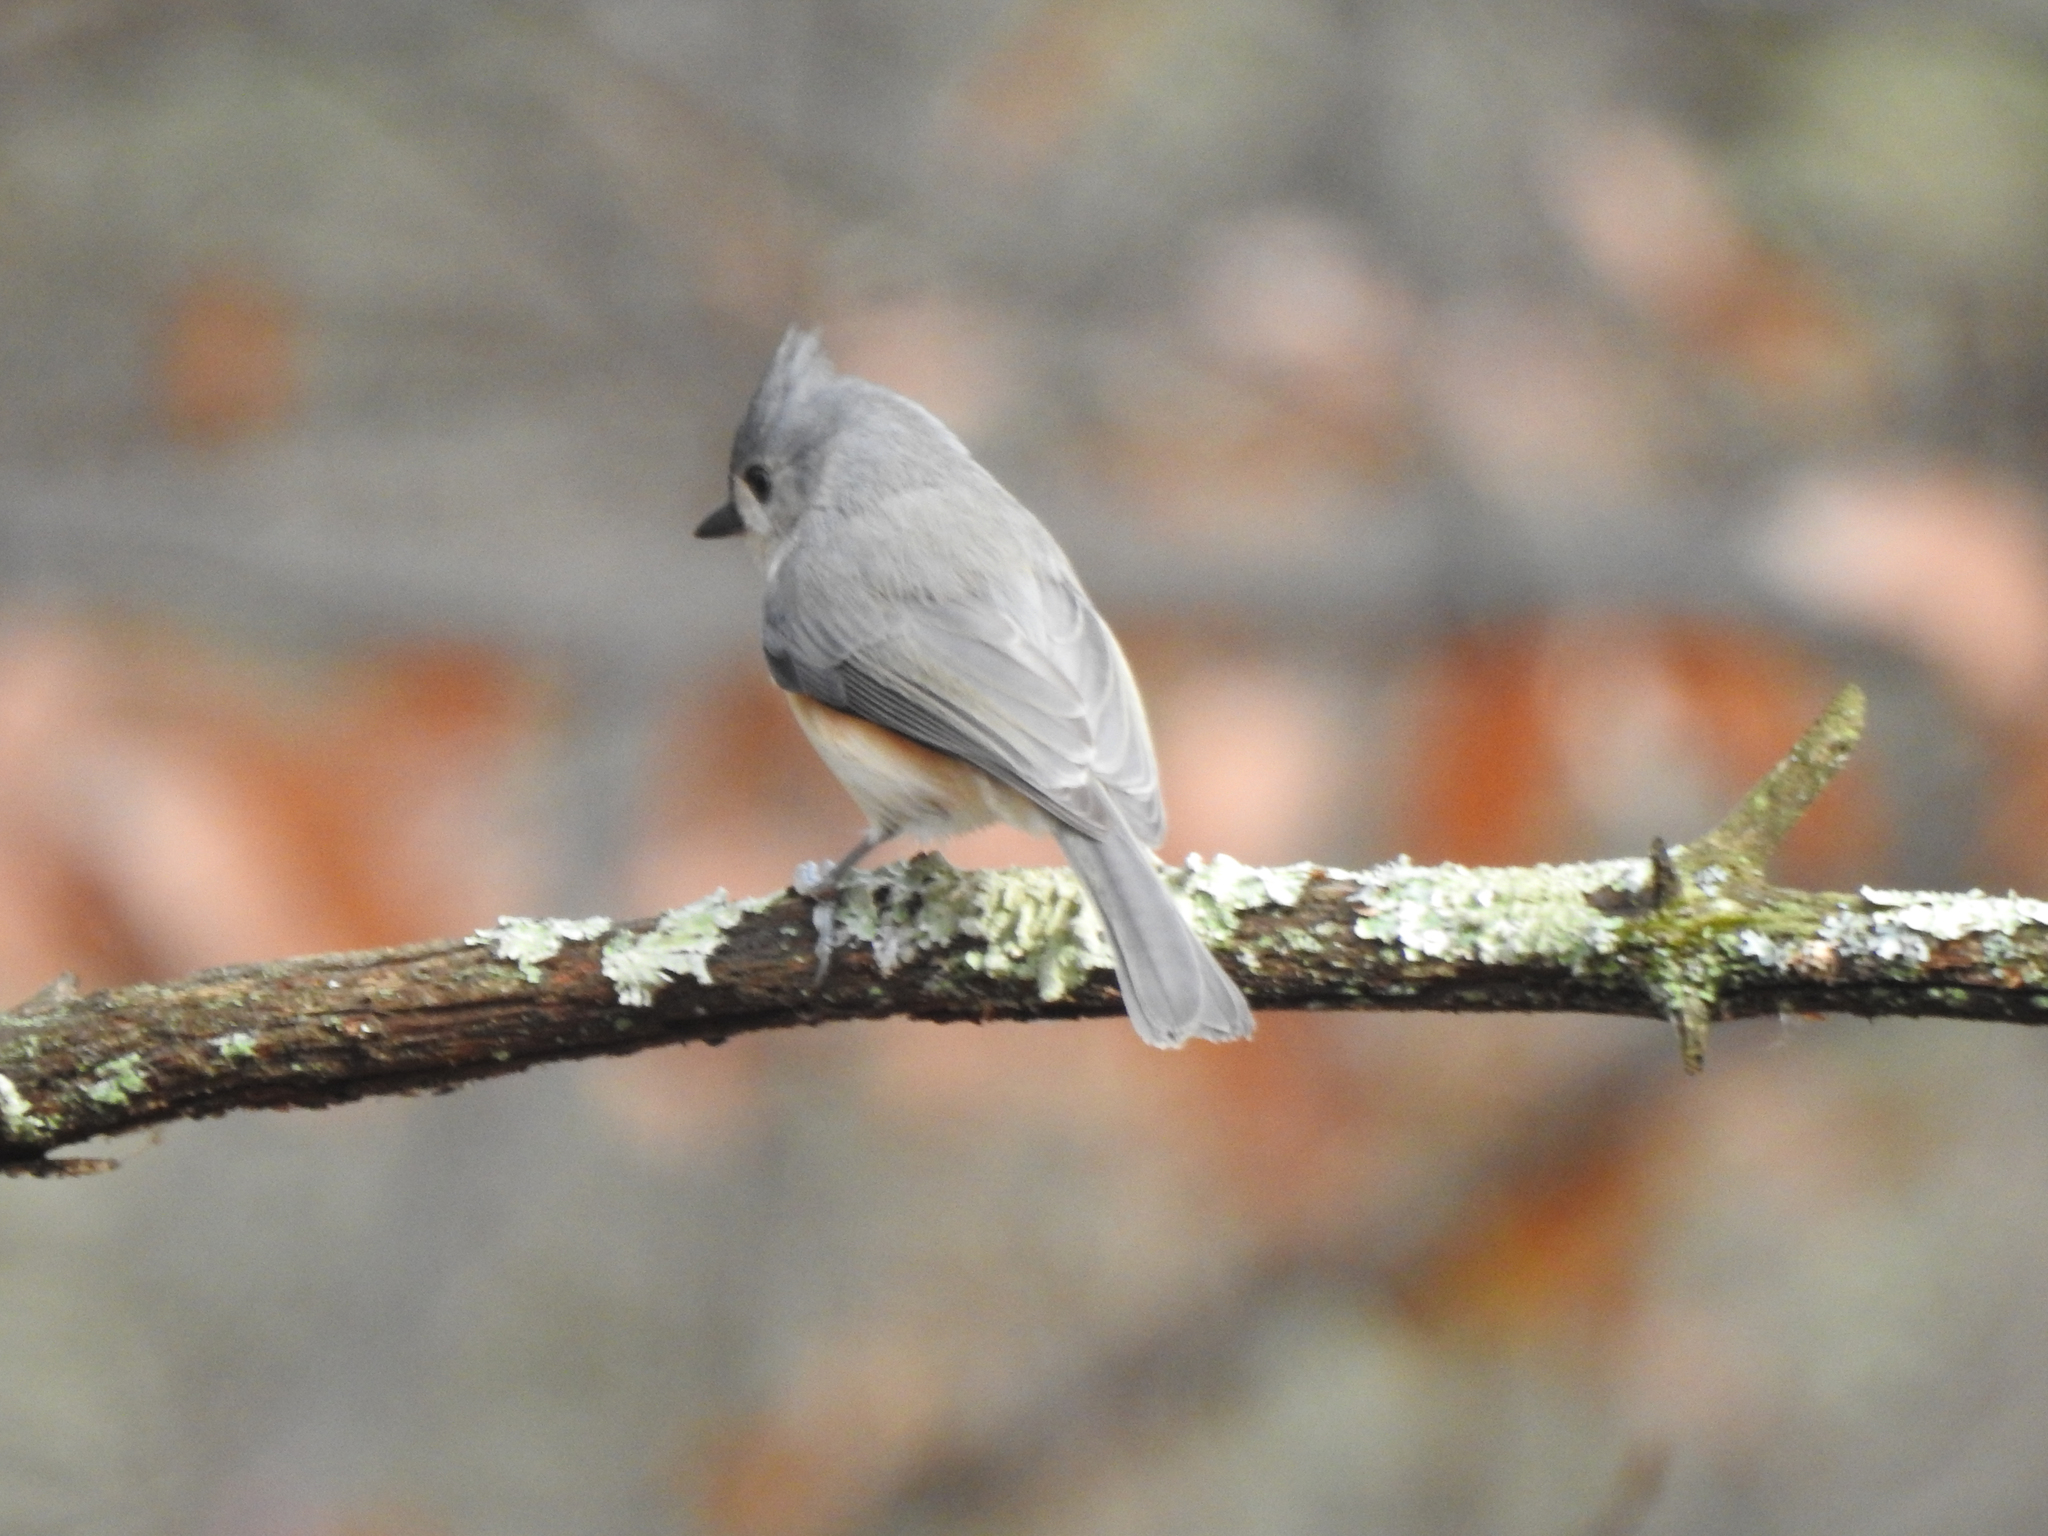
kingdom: Animalia
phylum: Chordata
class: Aves
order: Passeriformes
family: Paridae
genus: Baeolophus
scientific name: Baeolophus bicolor
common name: Tufted titmouse
